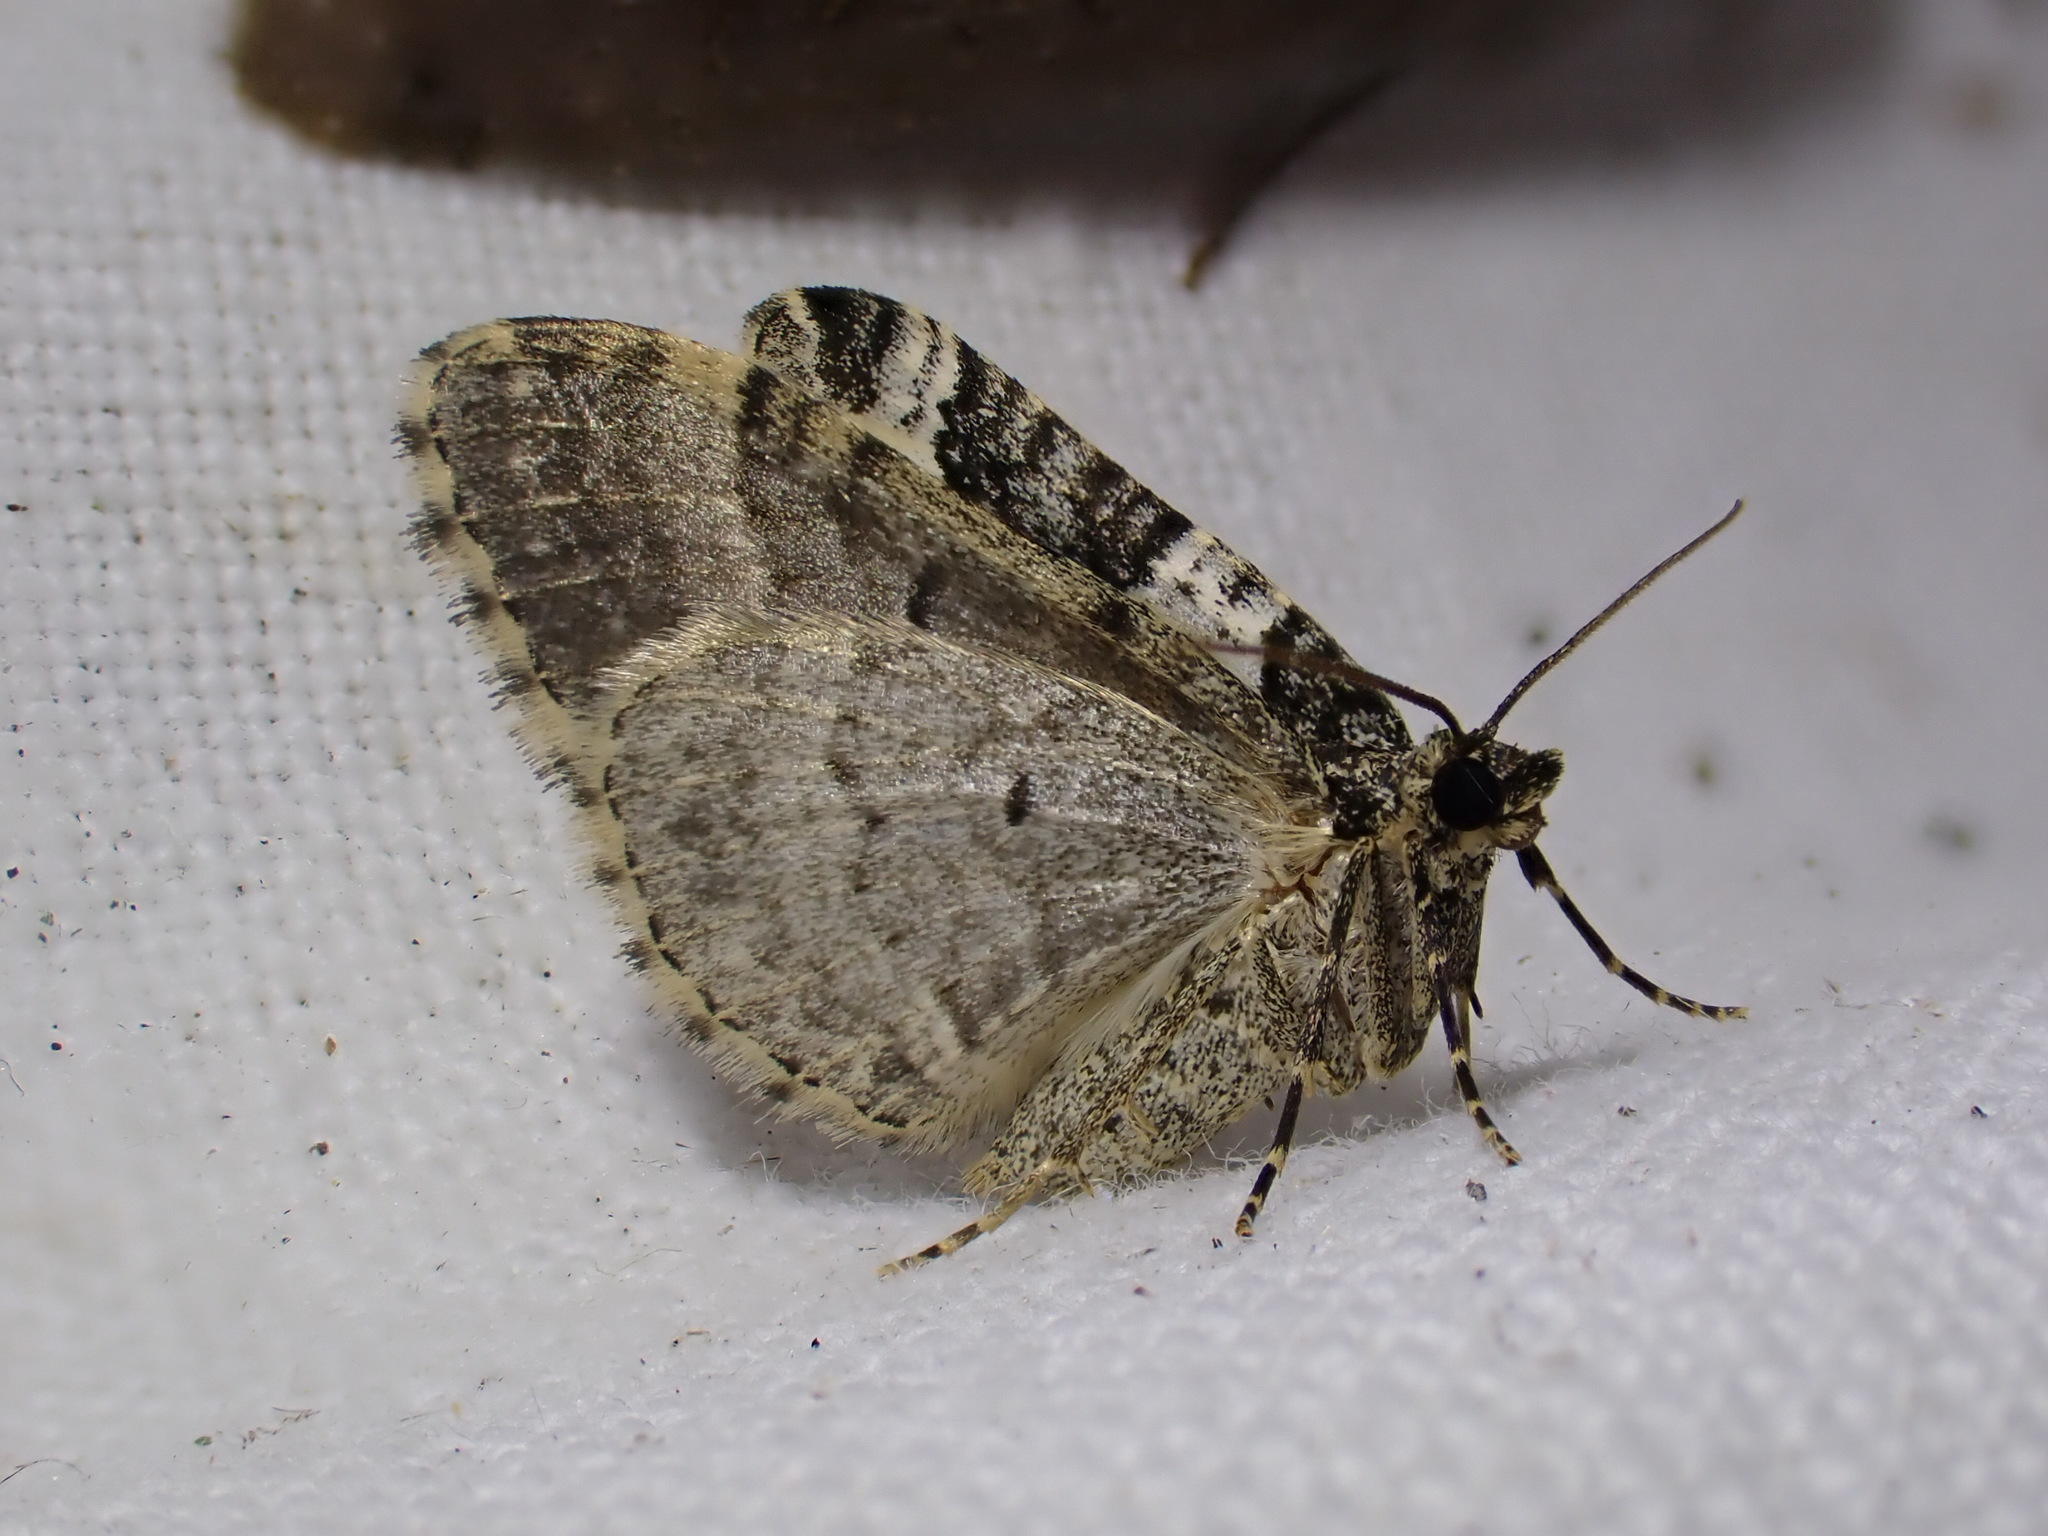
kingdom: Animalia
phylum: Arthropoda
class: Insecta
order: Lepidoptera
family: Geometridae
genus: Xanthorhoe
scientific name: Xanthorhoe fluctuata
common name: Garden carpet
